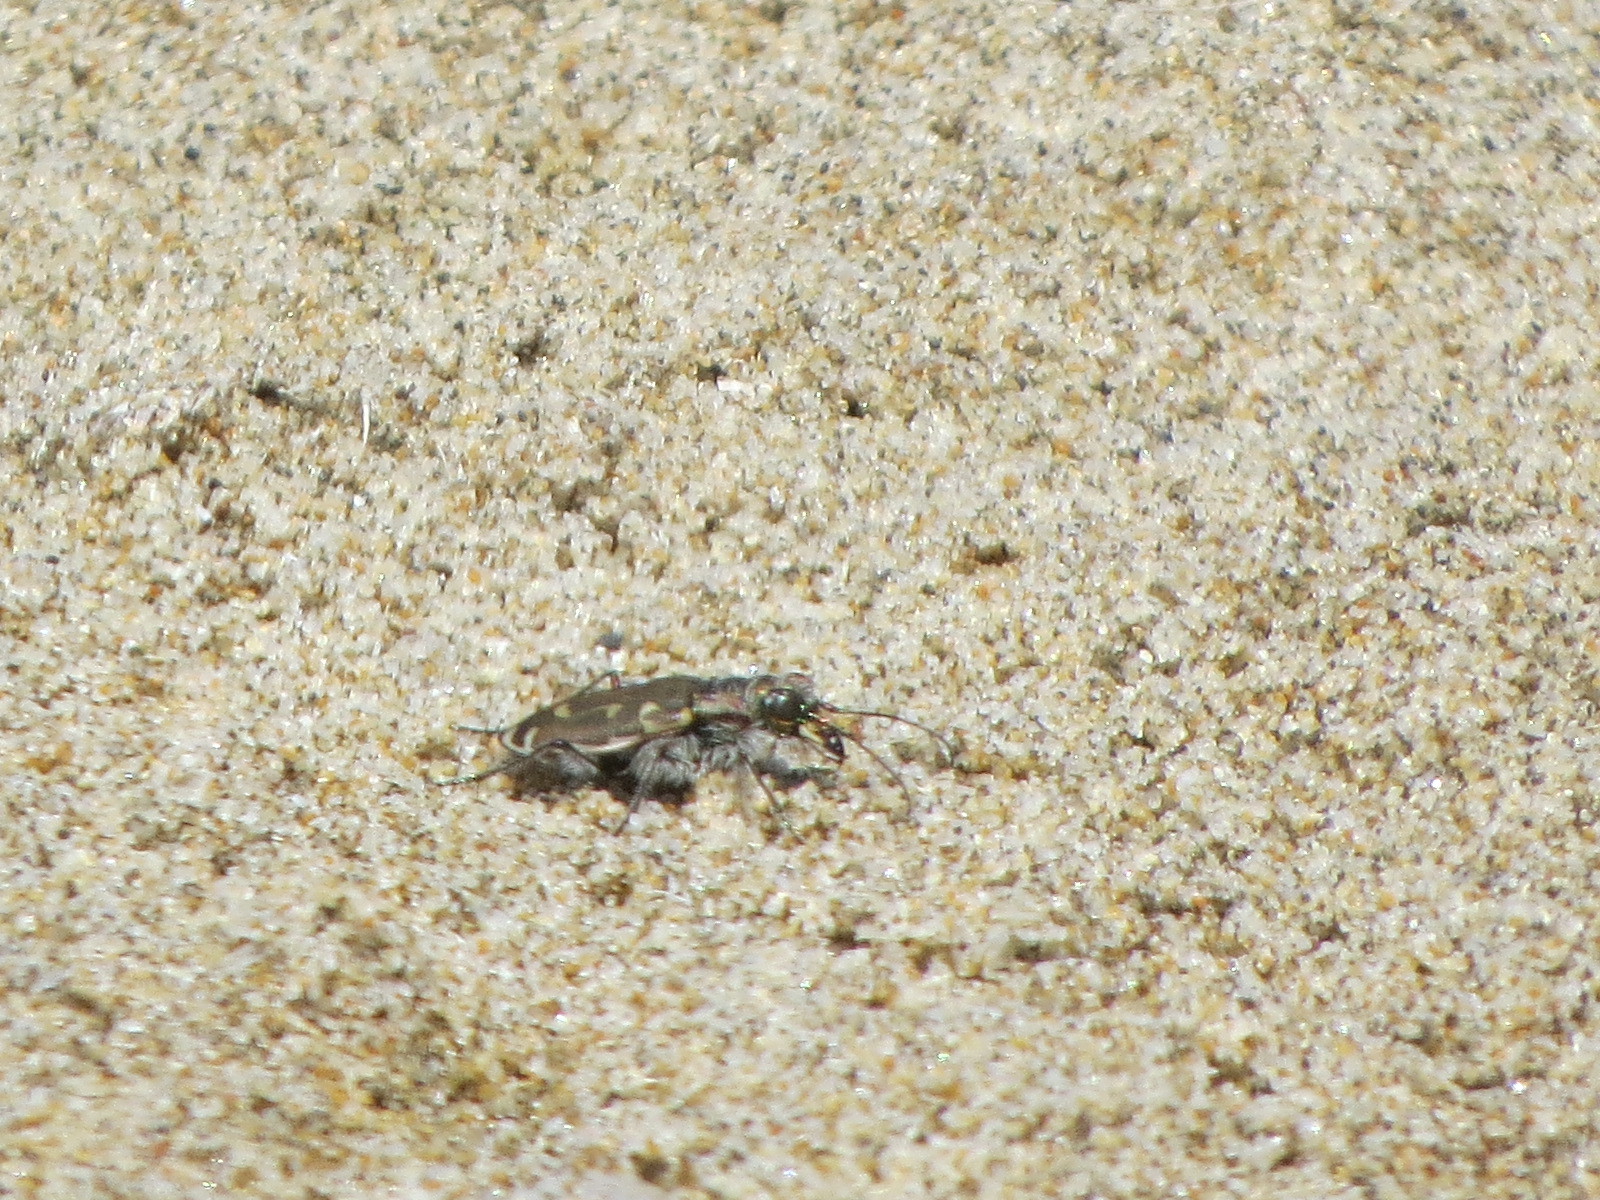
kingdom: Animalia
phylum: Arthropoda
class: Insecta
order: Coleoptera
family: Carabidae
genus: Cicindela
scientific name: Cicindela hirticollis
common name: Hairy-necked tiger beetle
